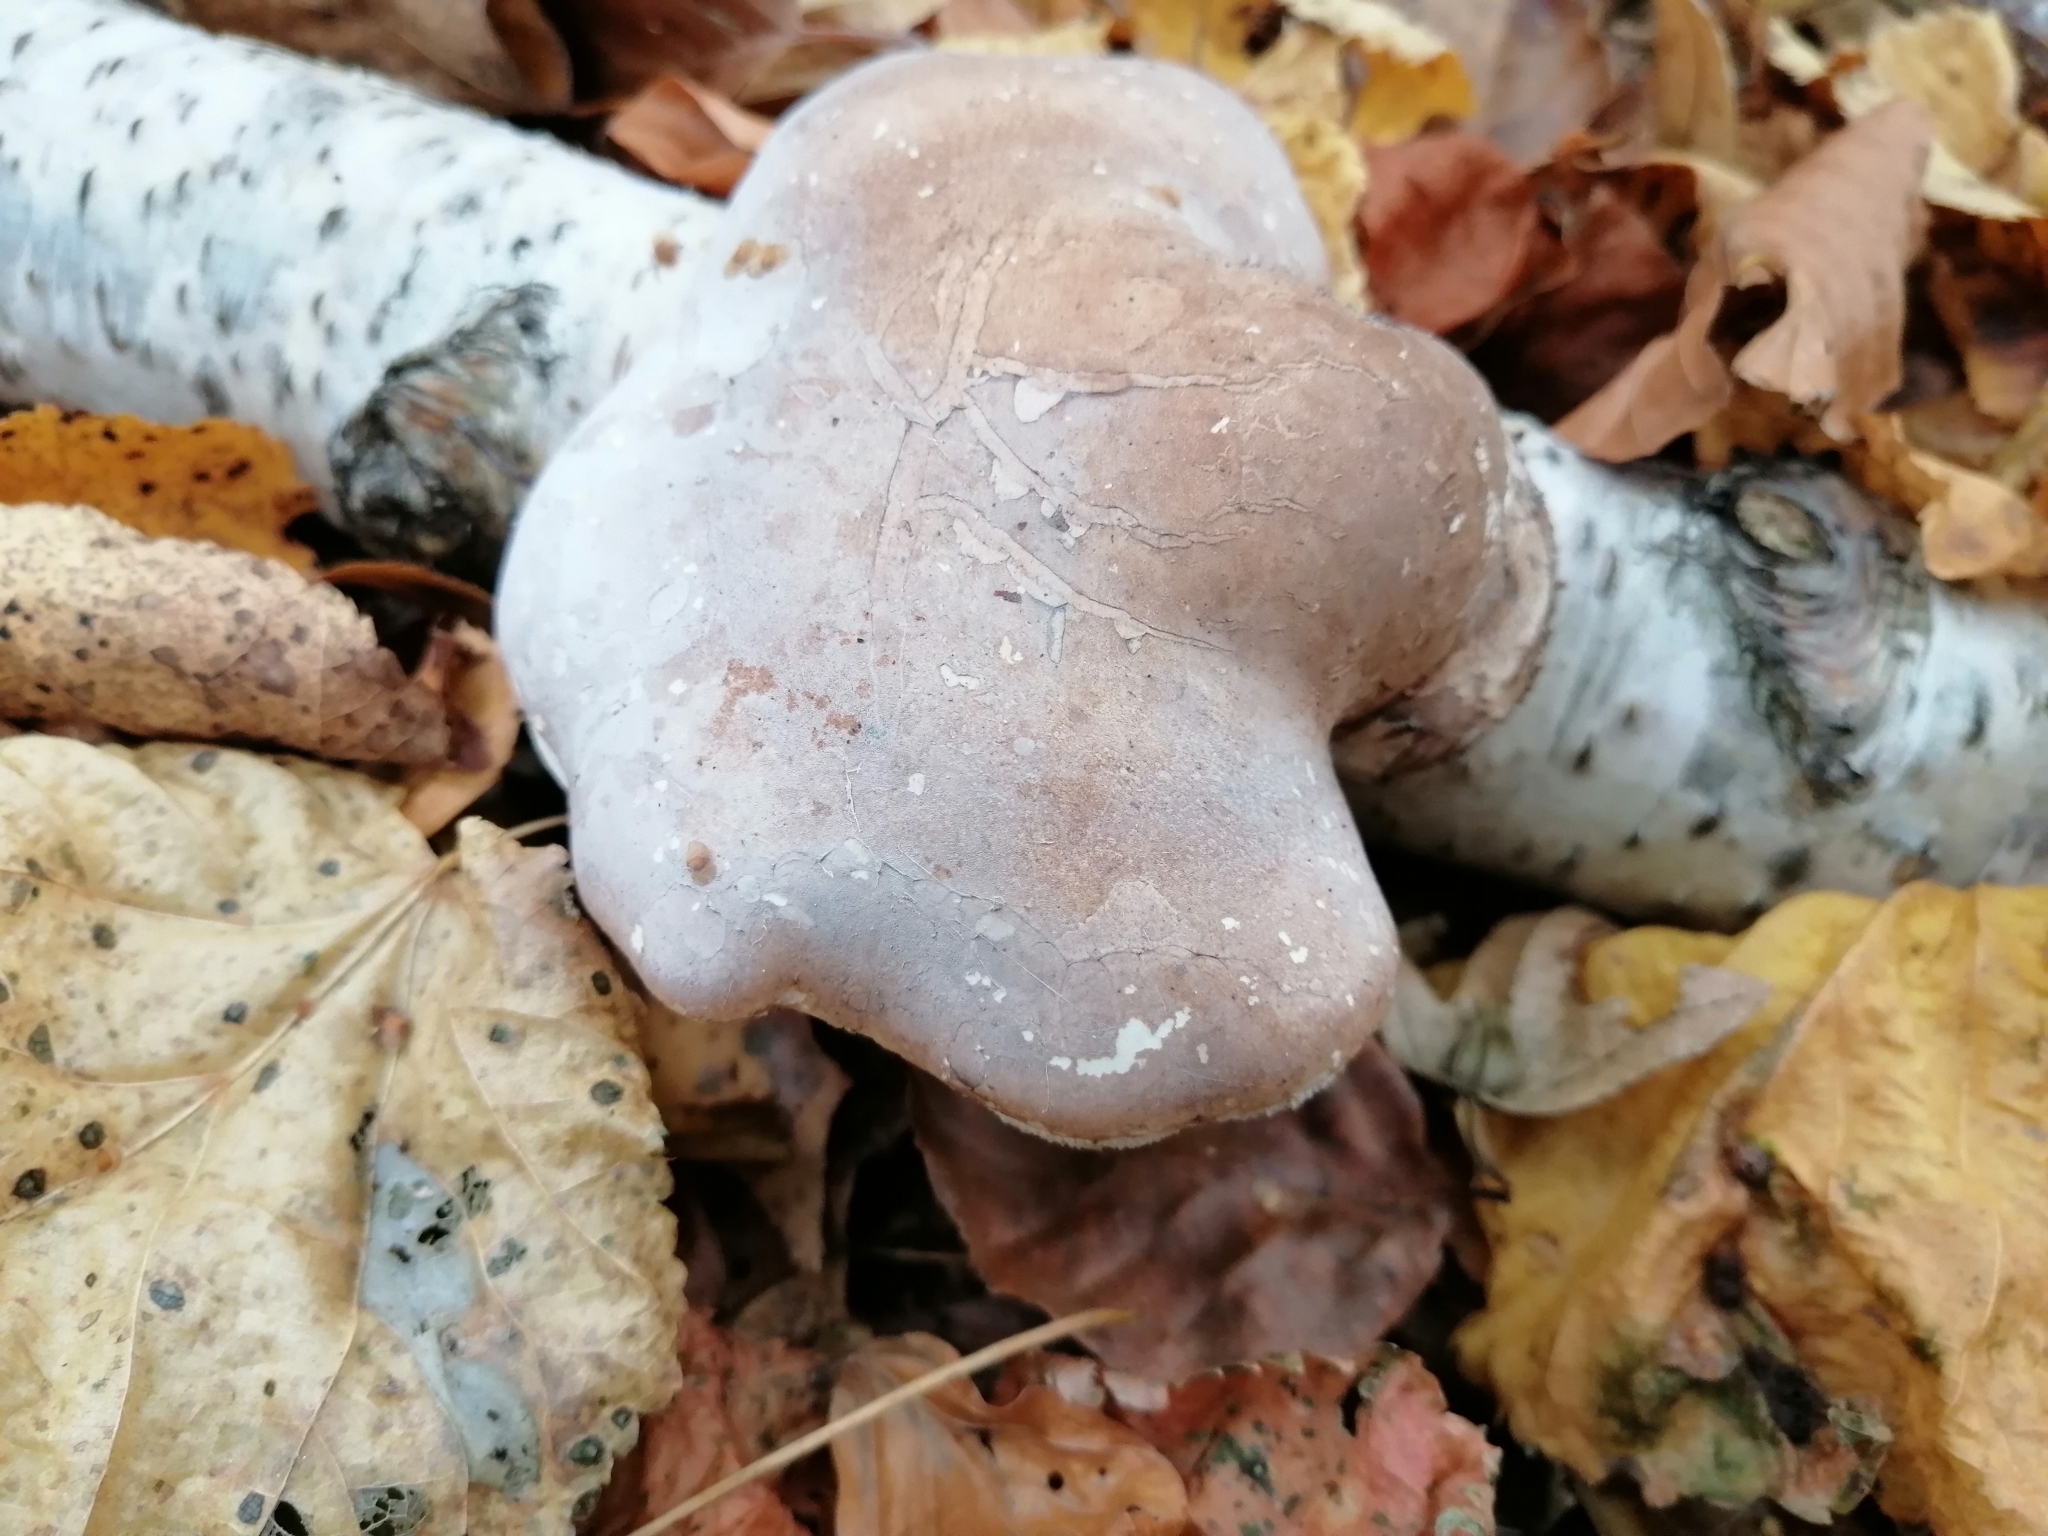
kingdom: Fungi
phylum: Basidiomycota
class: Agaricomycetes
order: Polyporales
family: Fomitopsidaceae
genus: Fomitopsis
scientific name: Fomitopsis betulina
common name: Birch polypore
